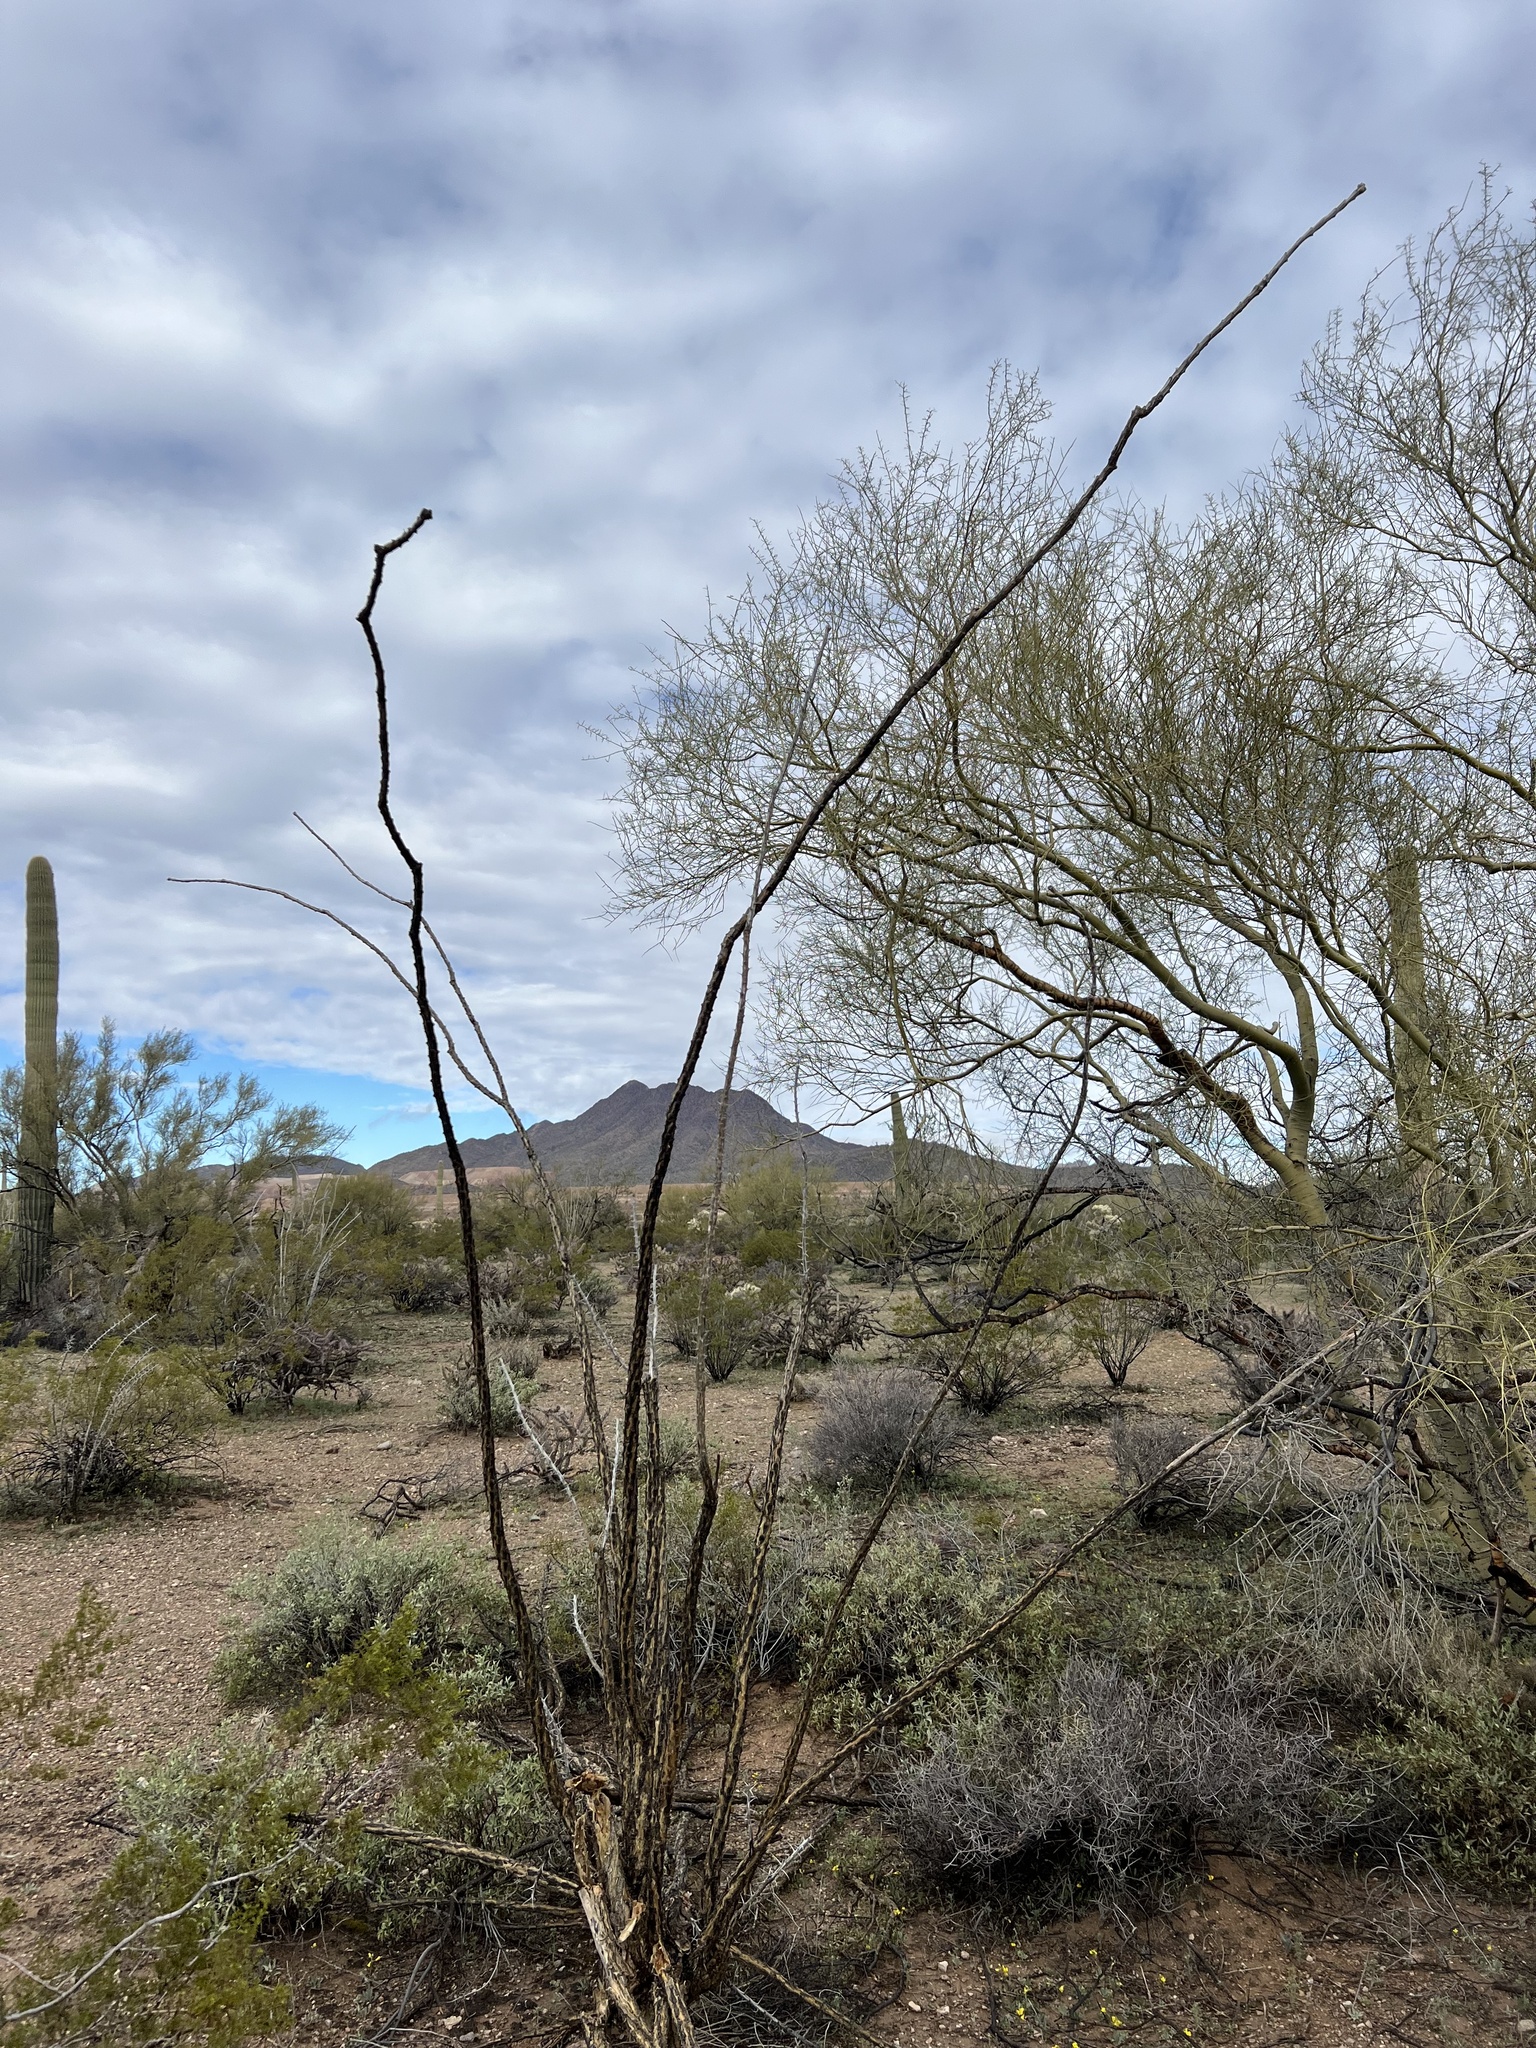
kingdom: Plantae
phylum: Tracheophyta
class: Magnoliopsida
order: Ericales
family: Fouquieriaceae
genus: Fouquieria
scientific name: Fouquieria splendens
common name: Vine-cactus
